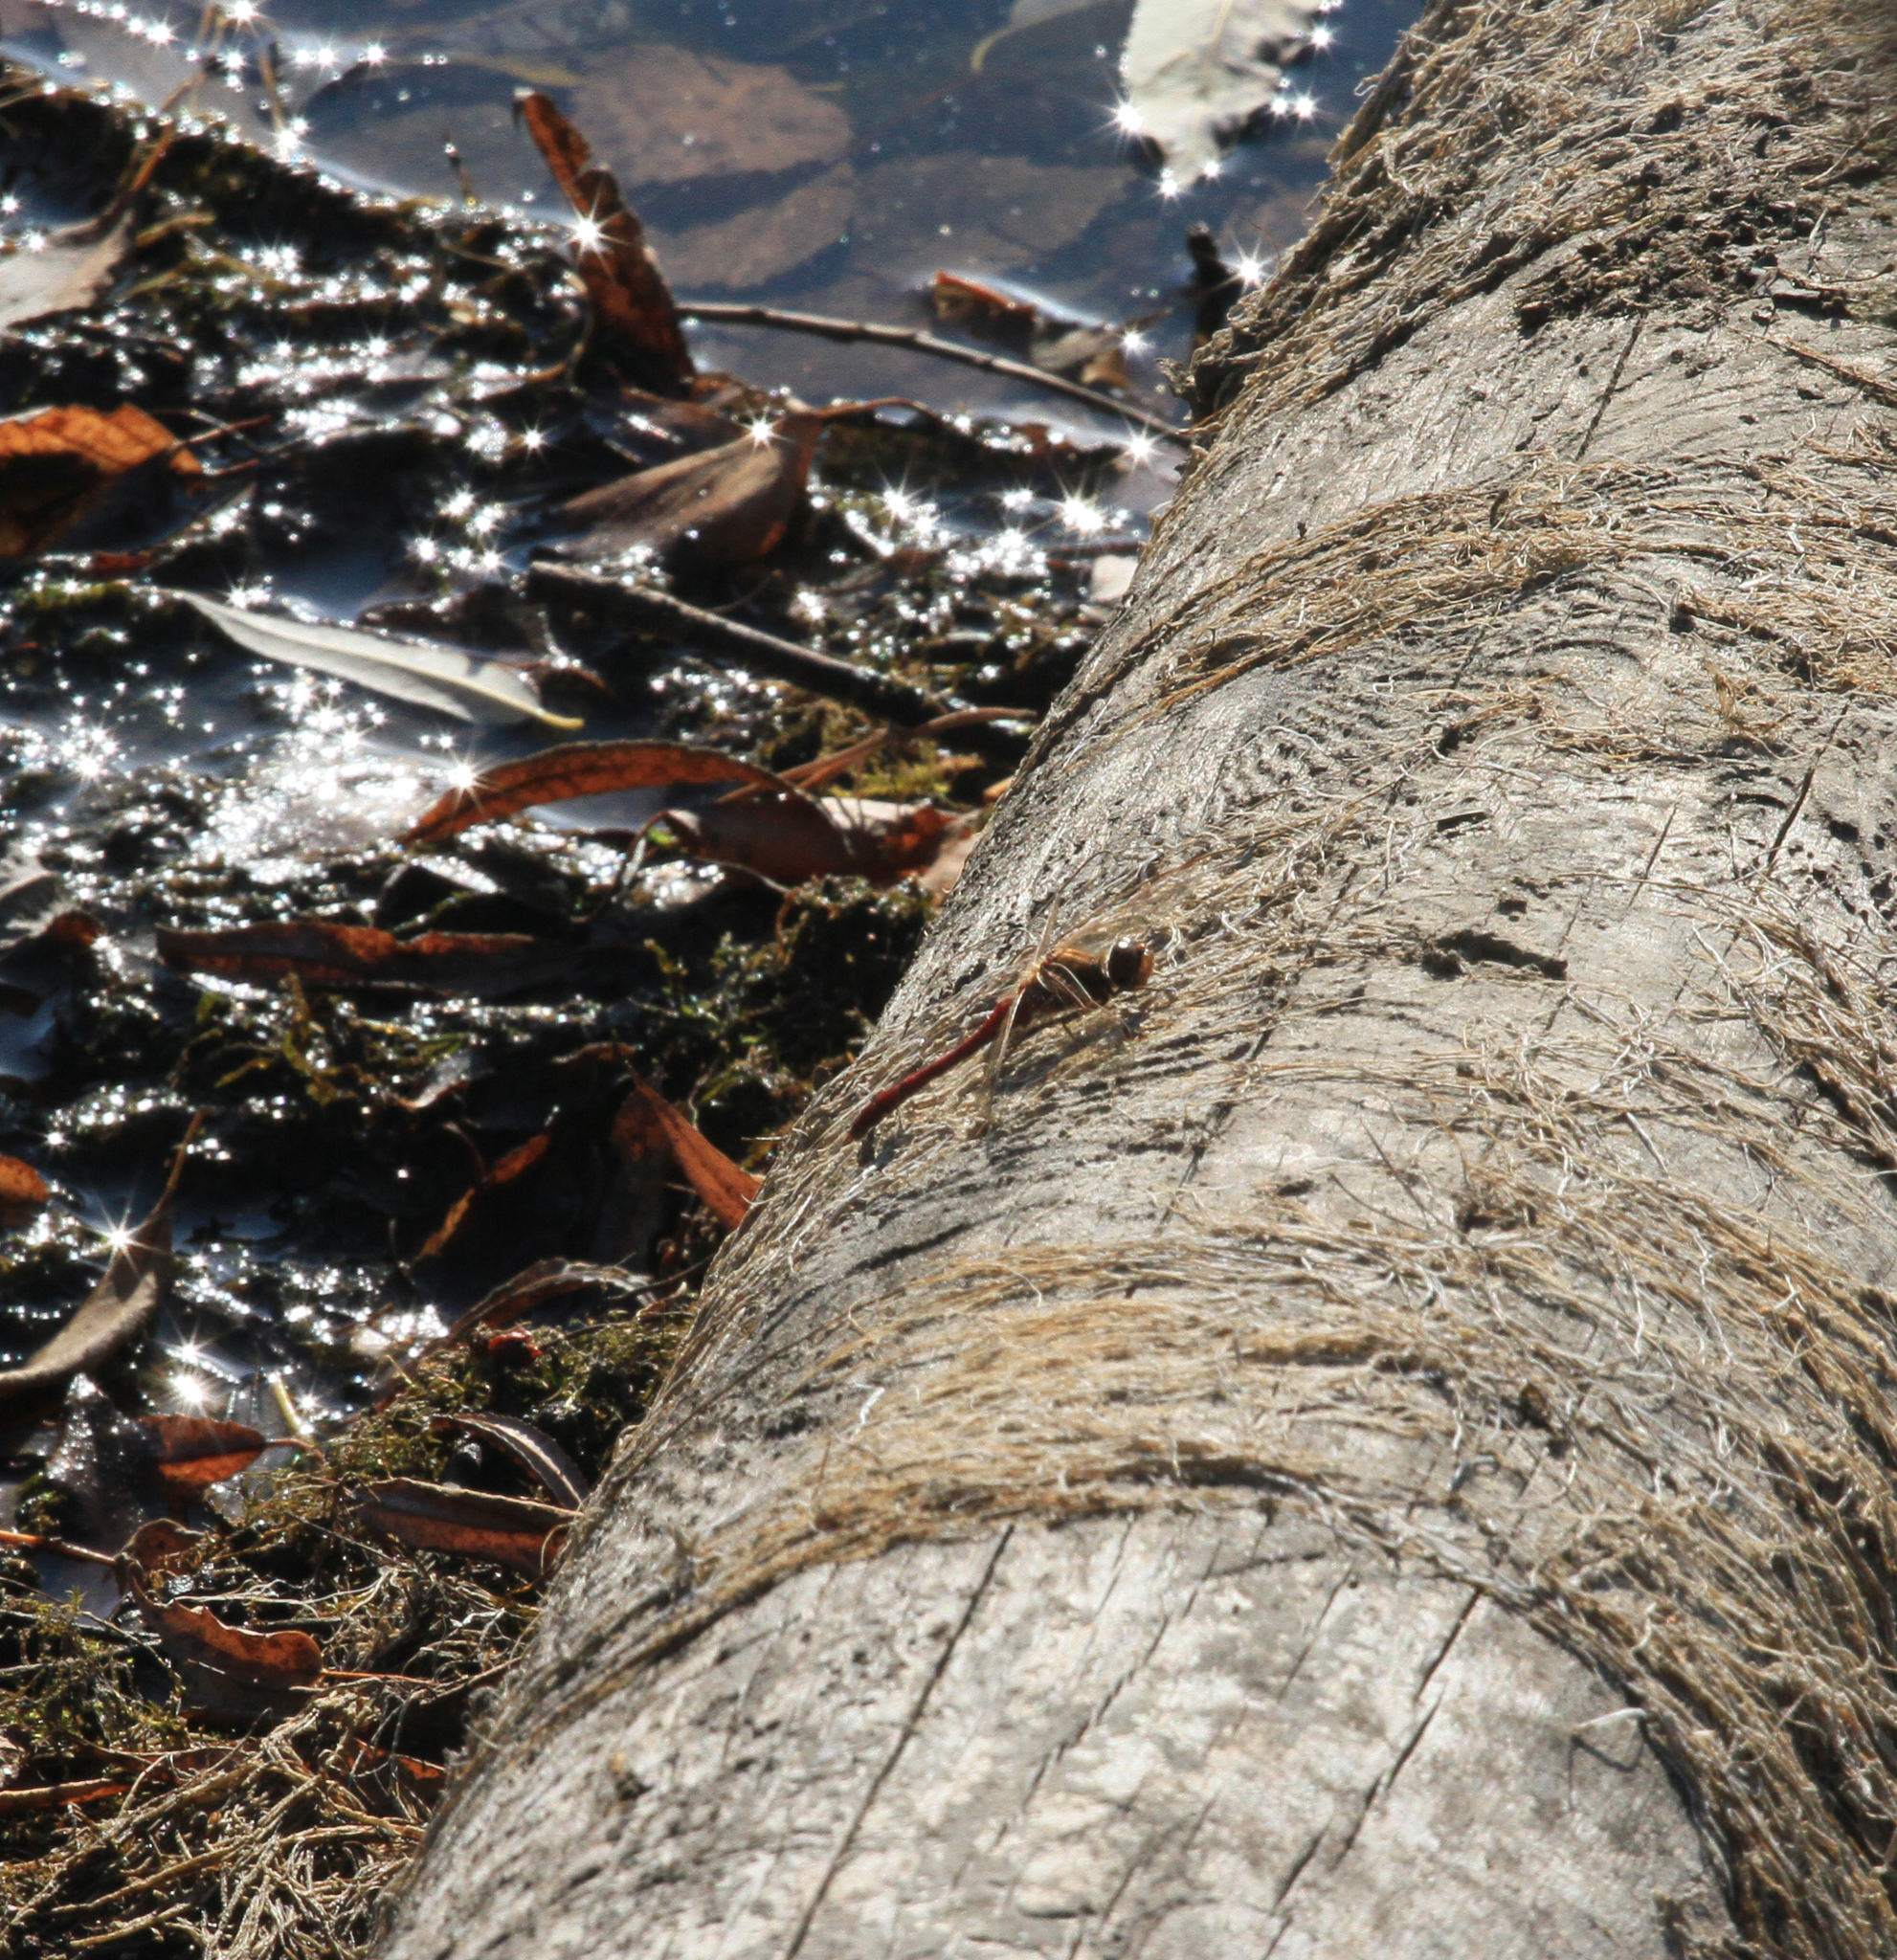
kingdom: Animalia
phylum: Arthropoda
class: Insecta
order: Odonata
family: Libellulidae
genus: Sympetrum
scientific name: Sympetrum vulgatum
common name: Vagrant darter
